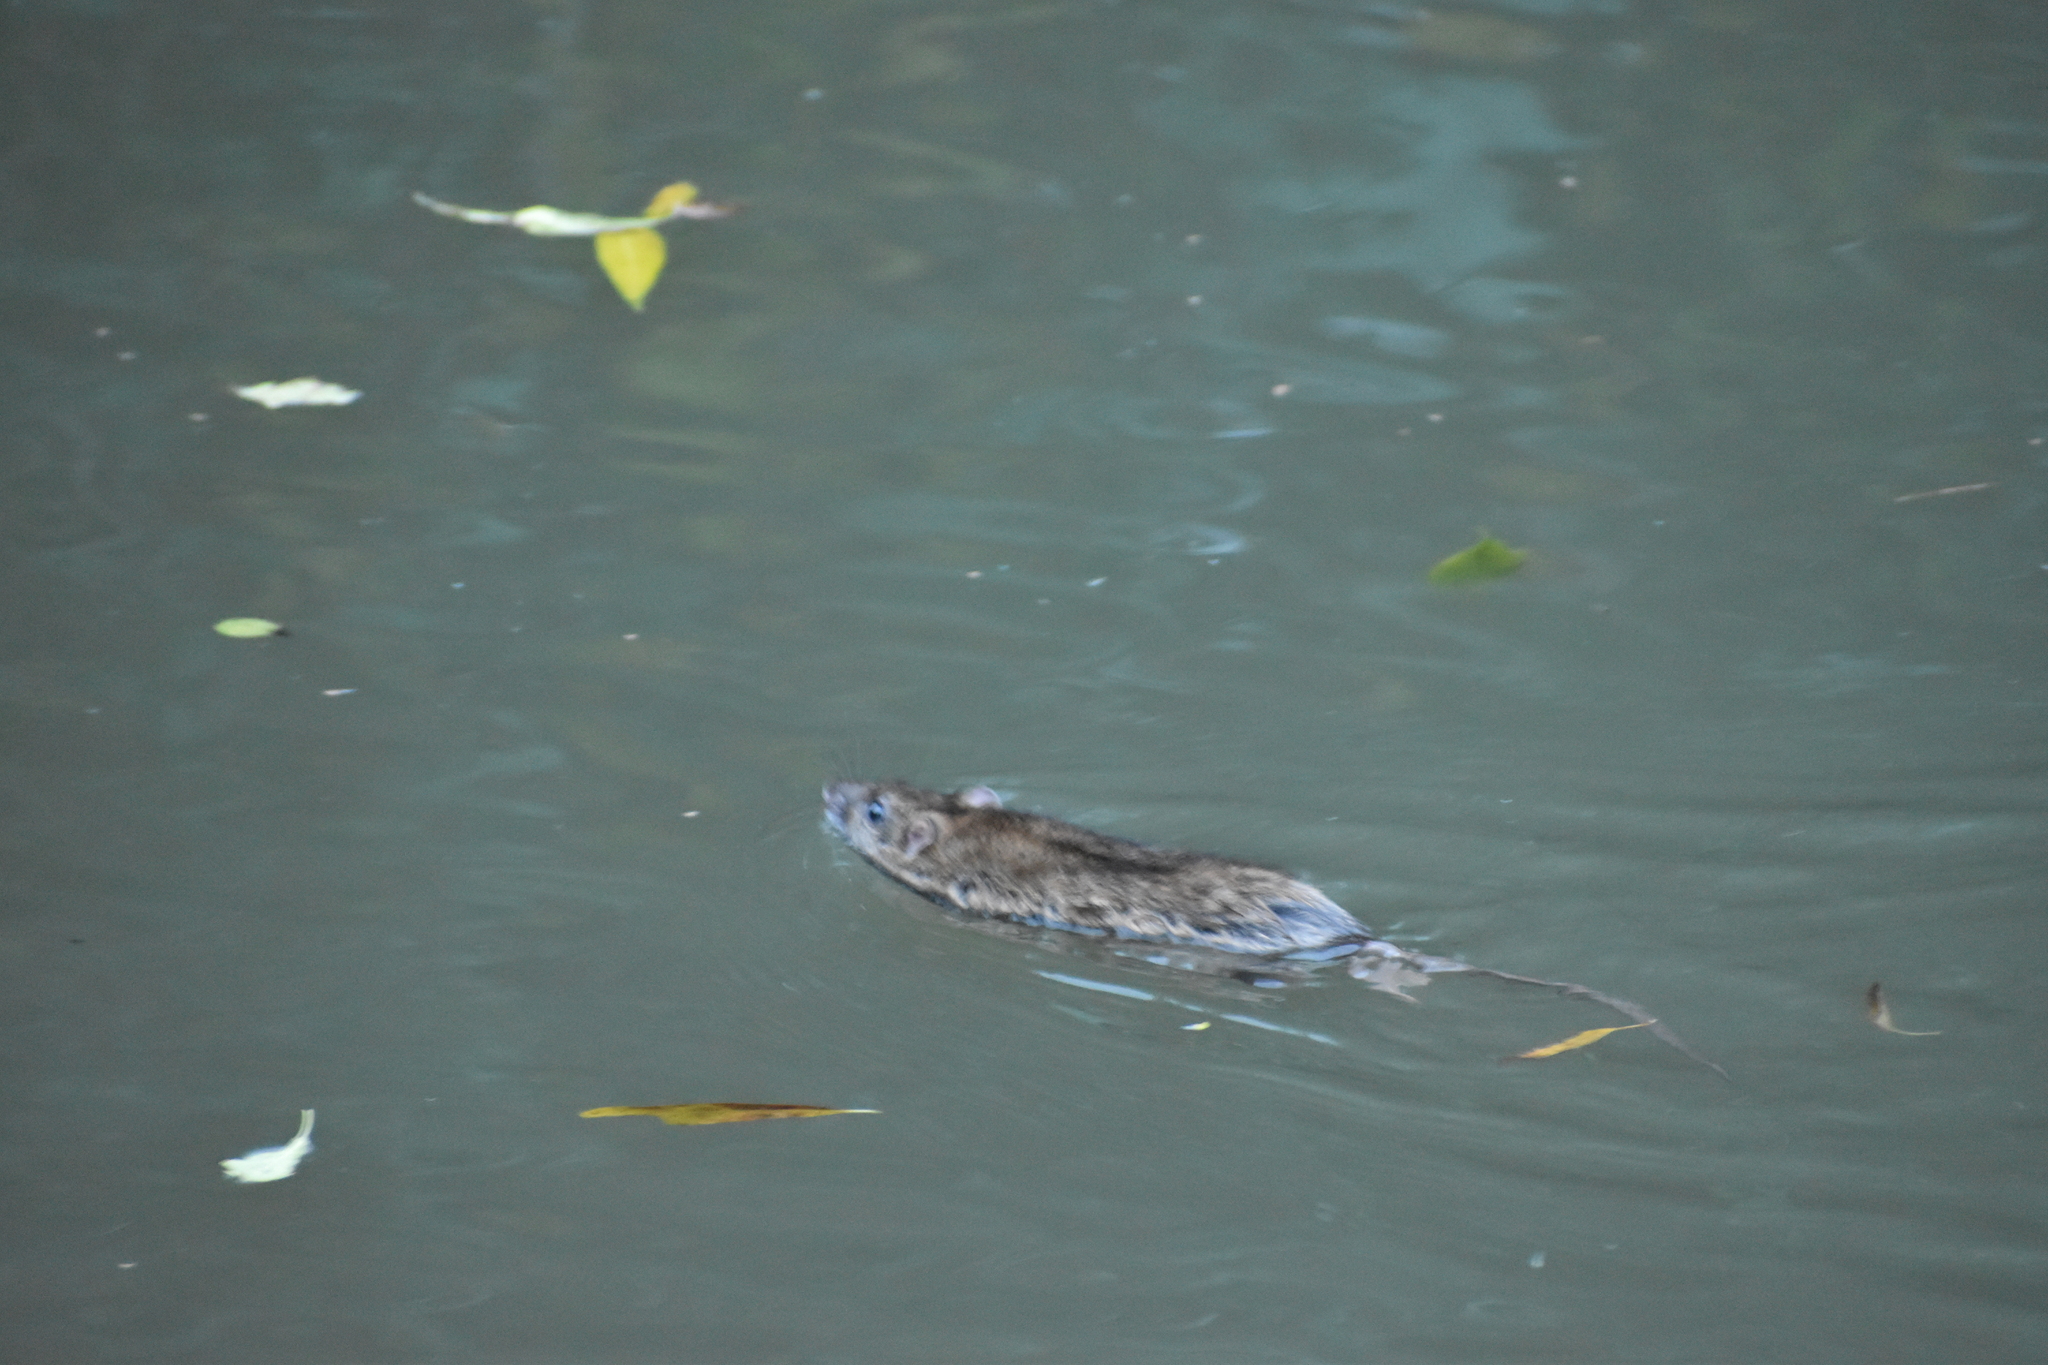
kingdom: Animalia
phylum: Chordata
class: Mammalia
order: Rodentia
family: Muridae
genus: Rattus
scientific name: Rattus norvegicus
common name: Brown rat
